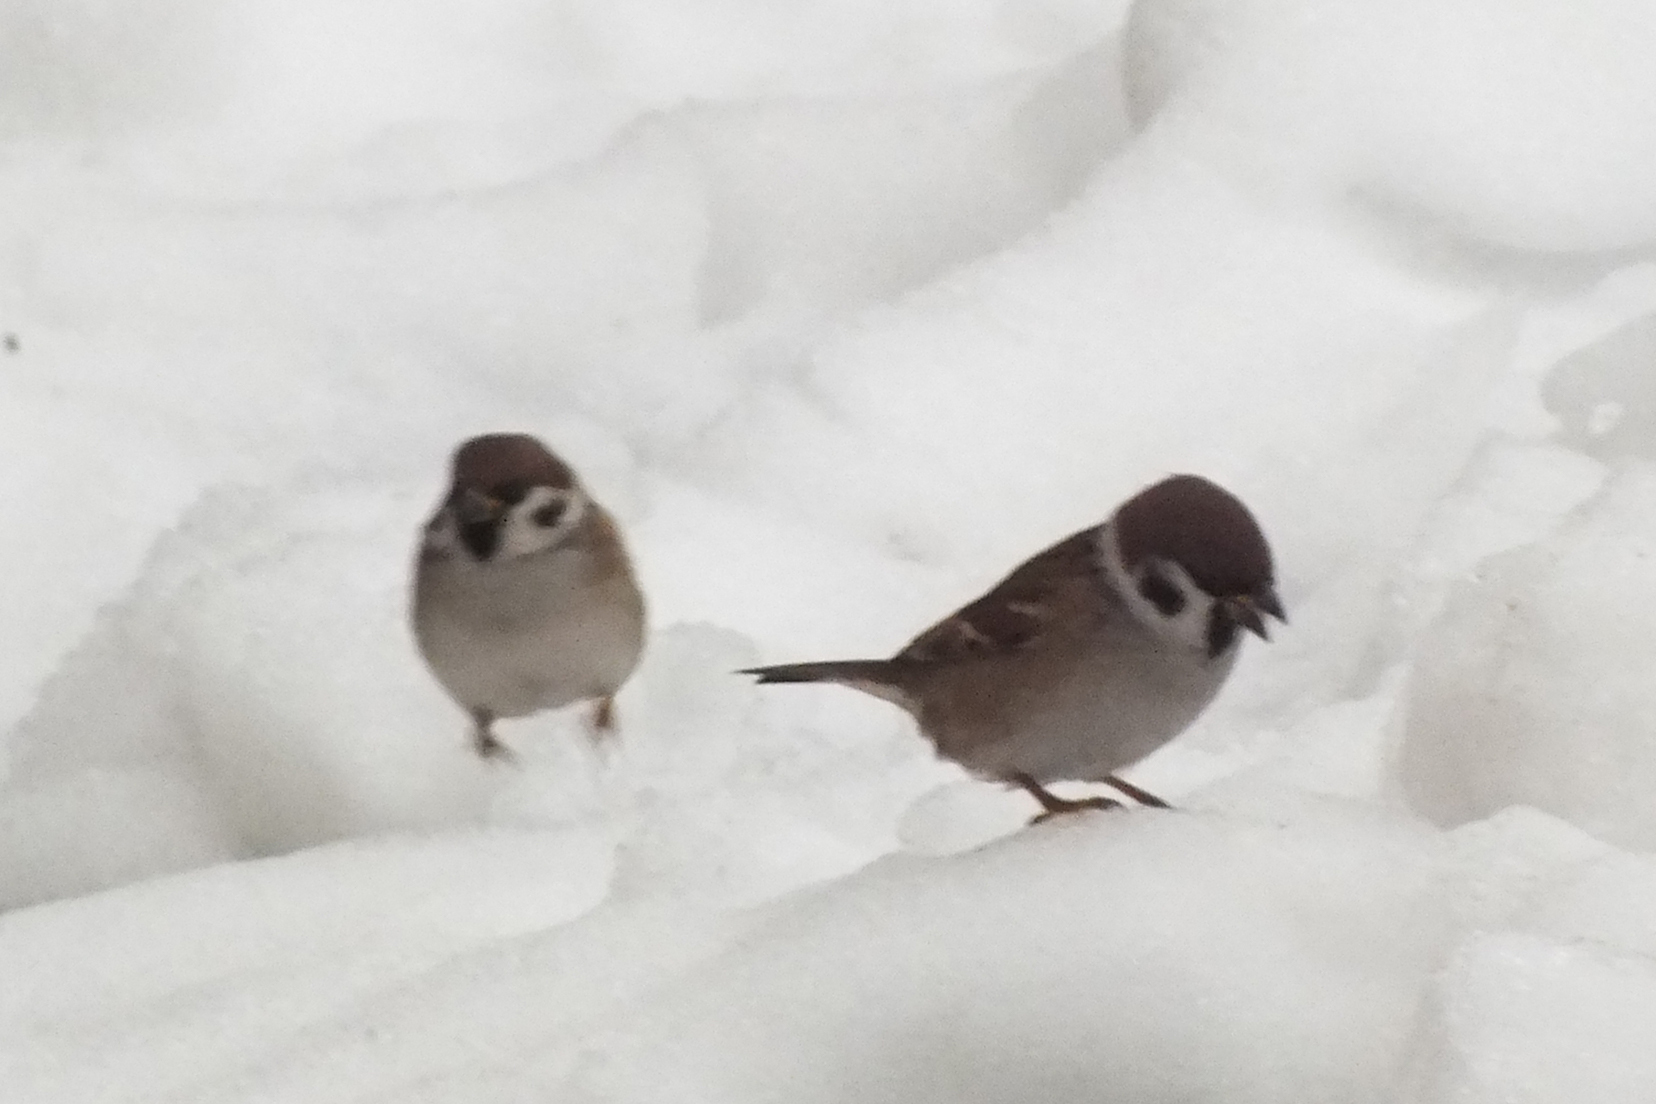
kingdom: Animalia
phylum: Chordata
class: Aves
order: Passeriformes
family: Passeridae
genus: Passer
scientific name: Passer montanus
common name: Eurasian tree sparrow
